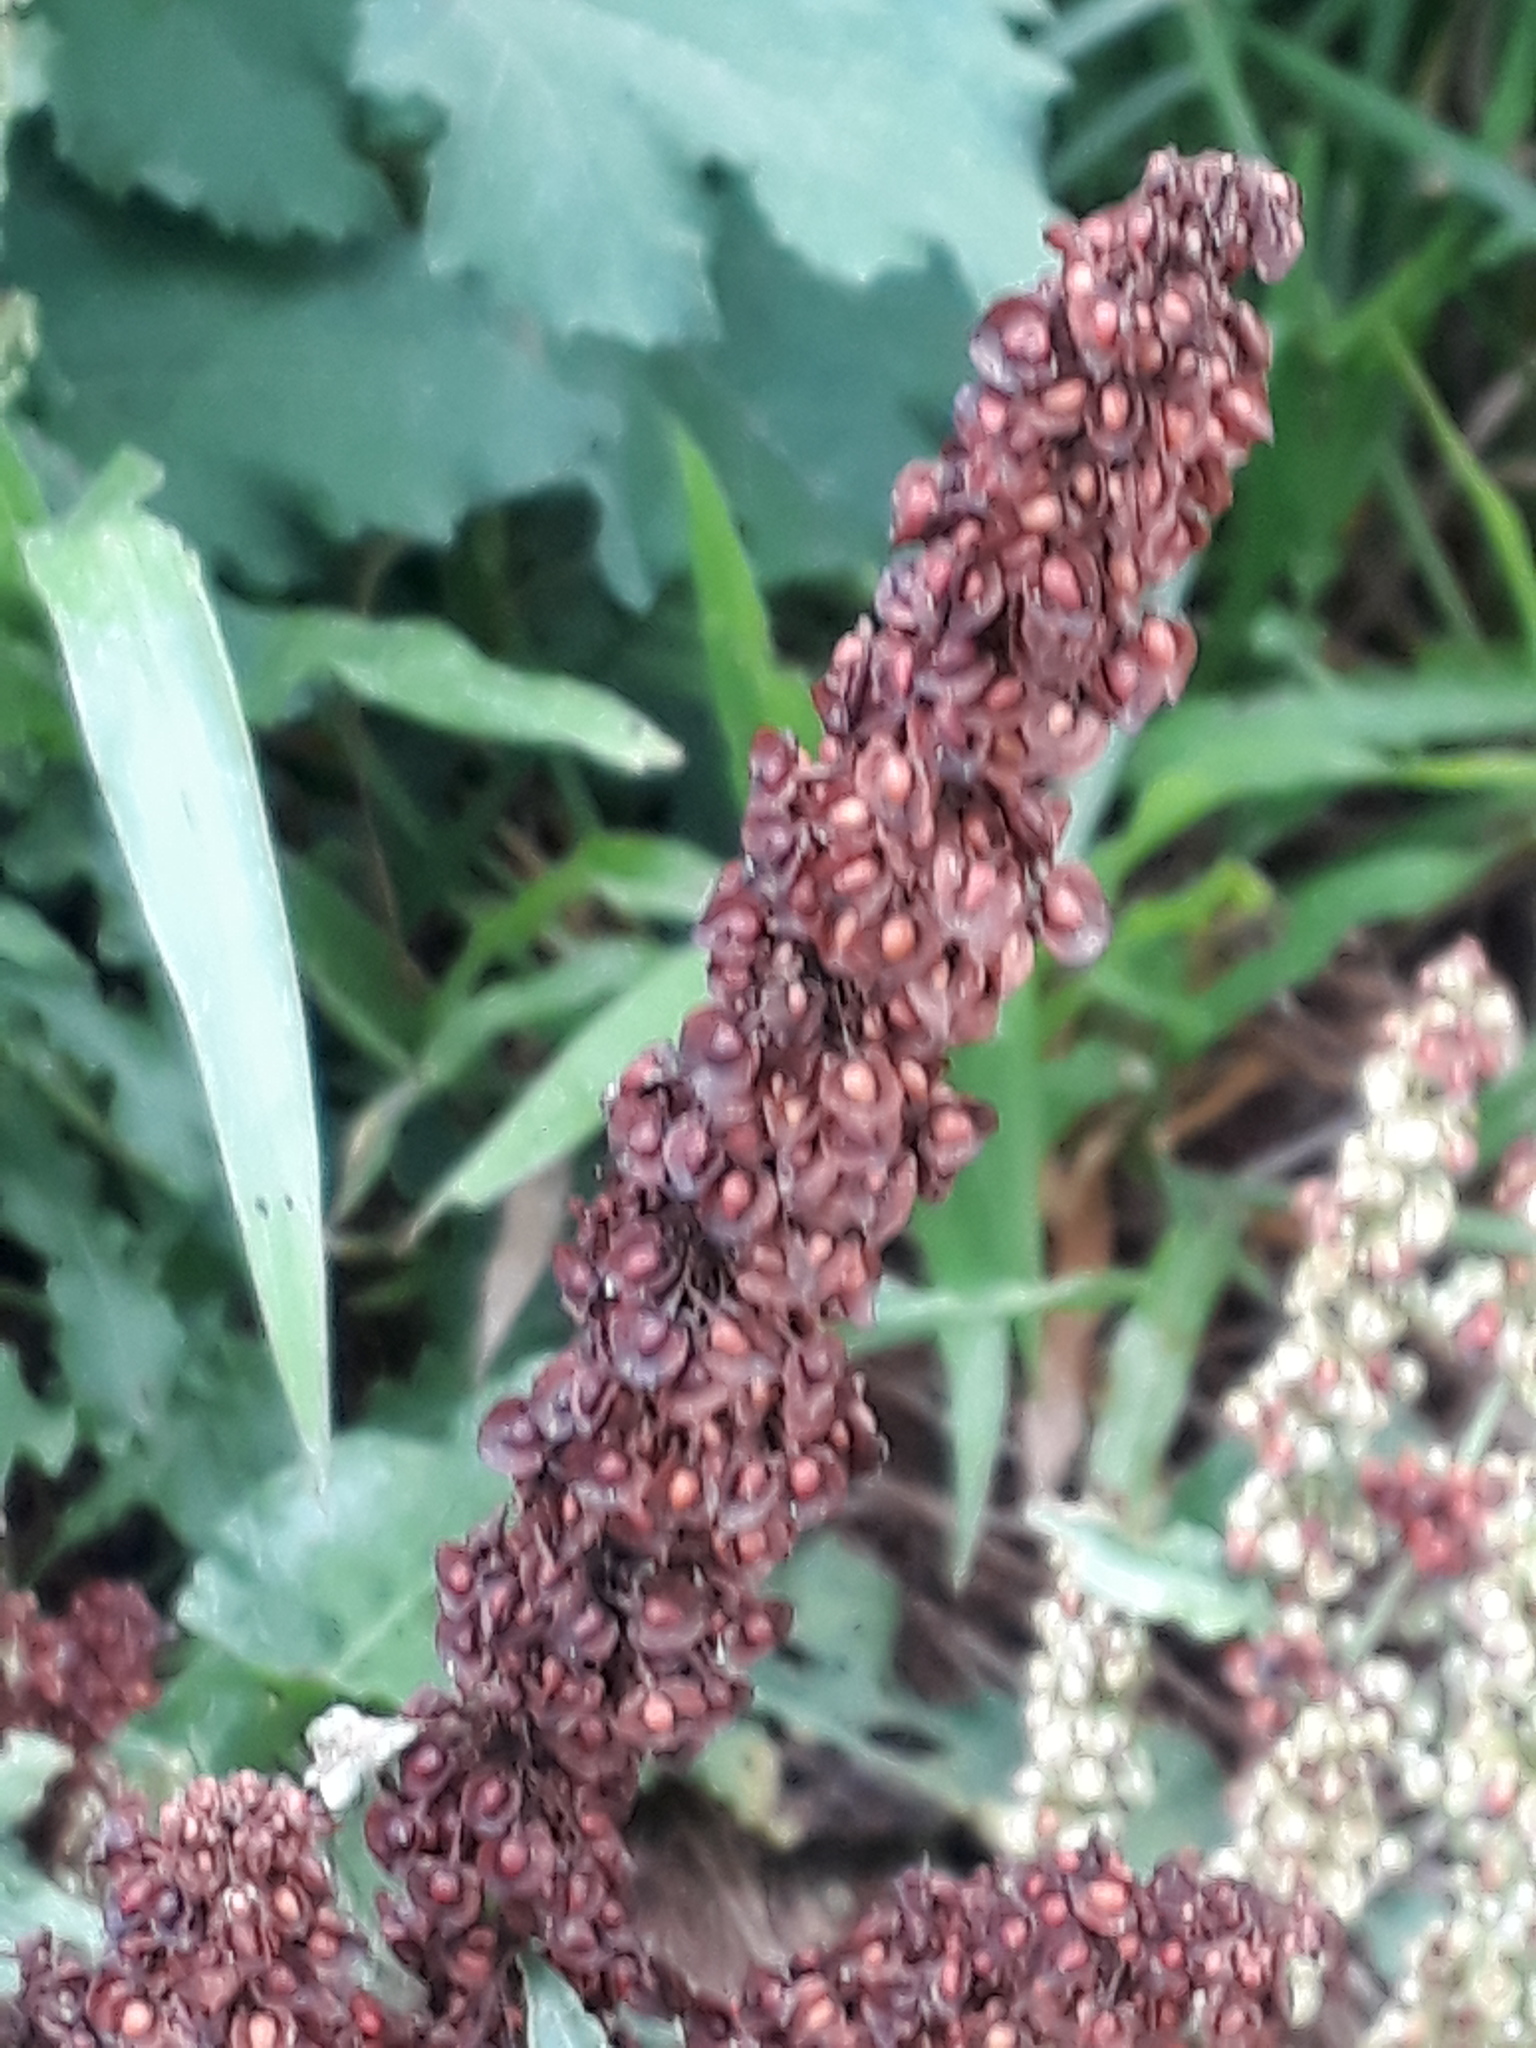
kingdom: Plantae
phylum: Tracheophyta
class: Magnoliopsida
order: Caryophyllales
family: Polygonaceae
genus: Rumex
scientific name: Rumex crispus
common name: Curled dock
